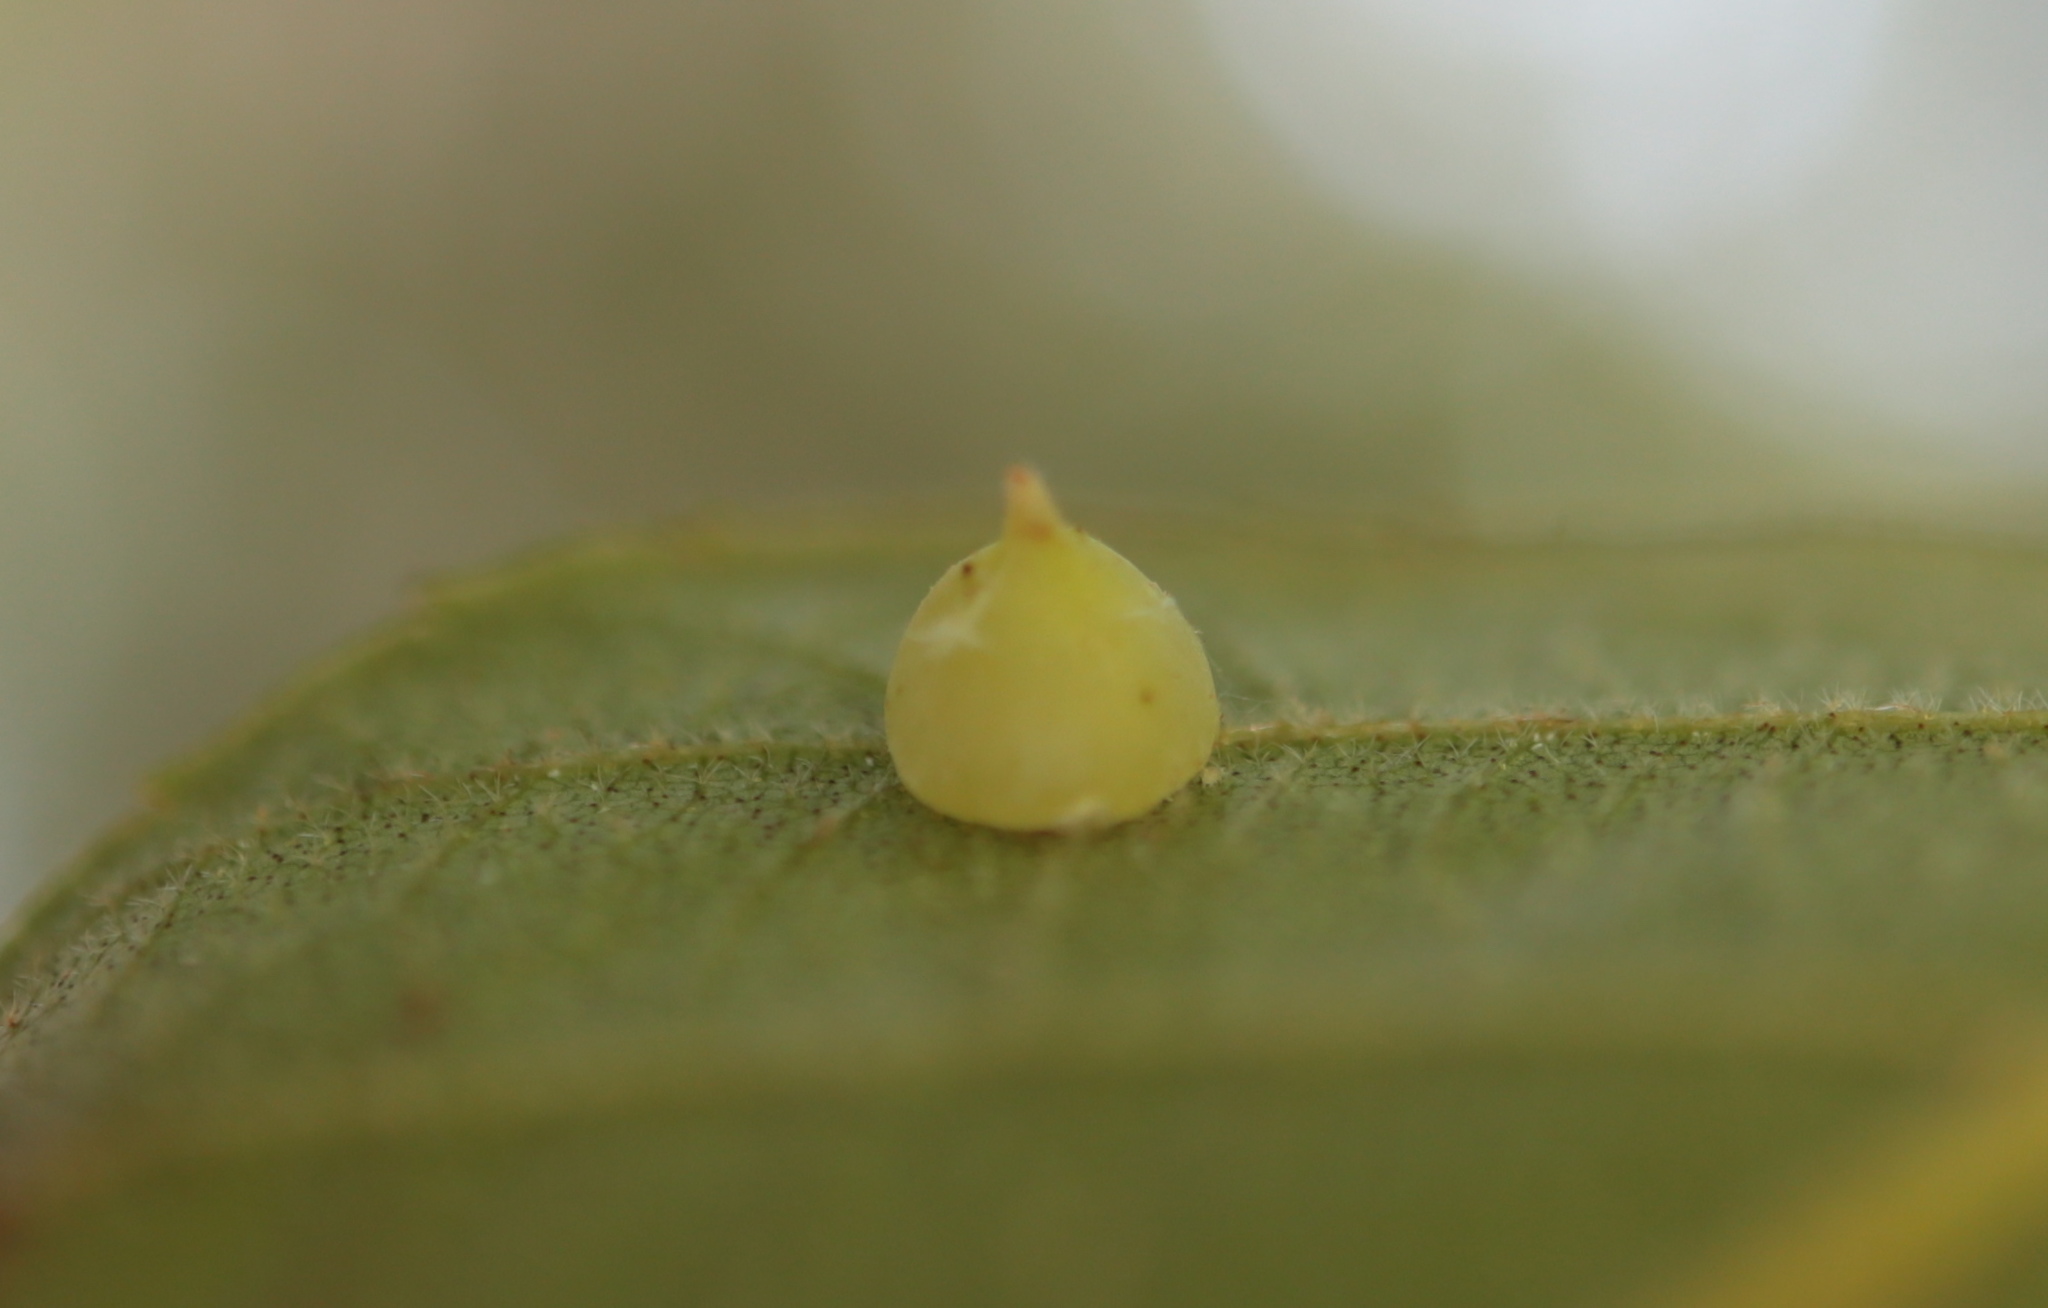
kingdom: Animalia
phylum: Arthropoda
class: Insecta
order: Diptera
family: Cecidomyiidae
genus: Caryomyia
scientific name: Caryomyia conoidea
